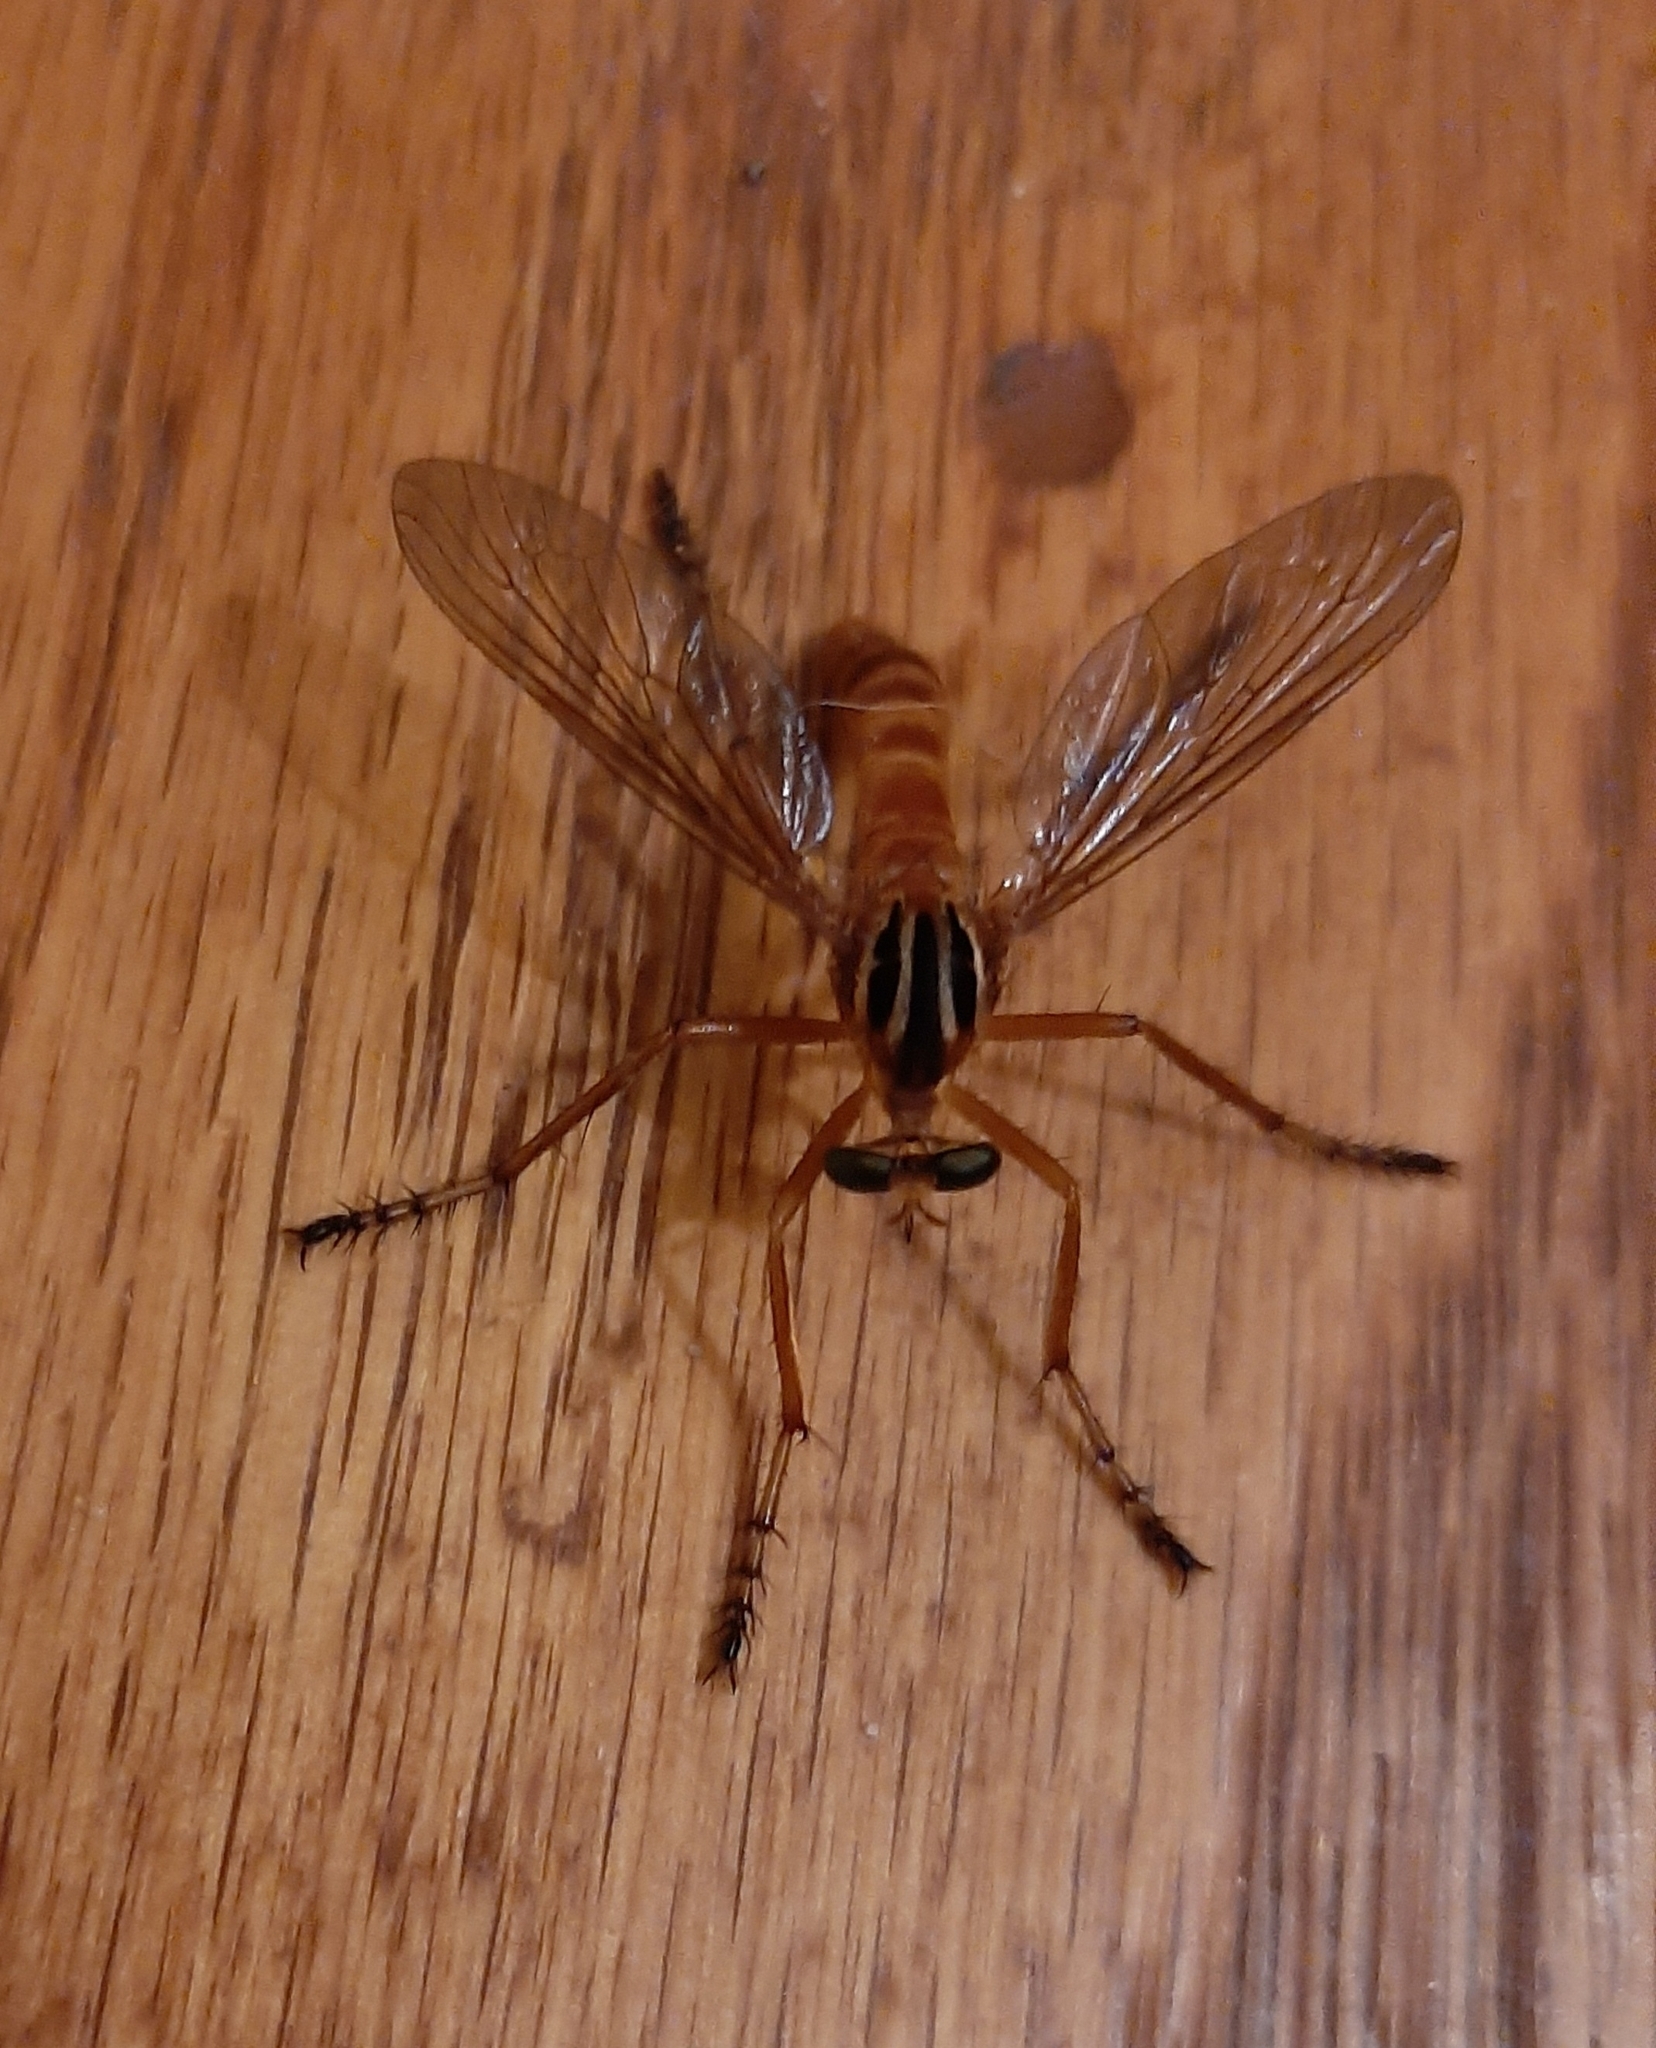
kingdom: Animalia
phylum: Arthropoda
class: Insecta
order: Diptera
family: Asilidae
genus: Diogmites
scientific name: Diogmites neoternatus
